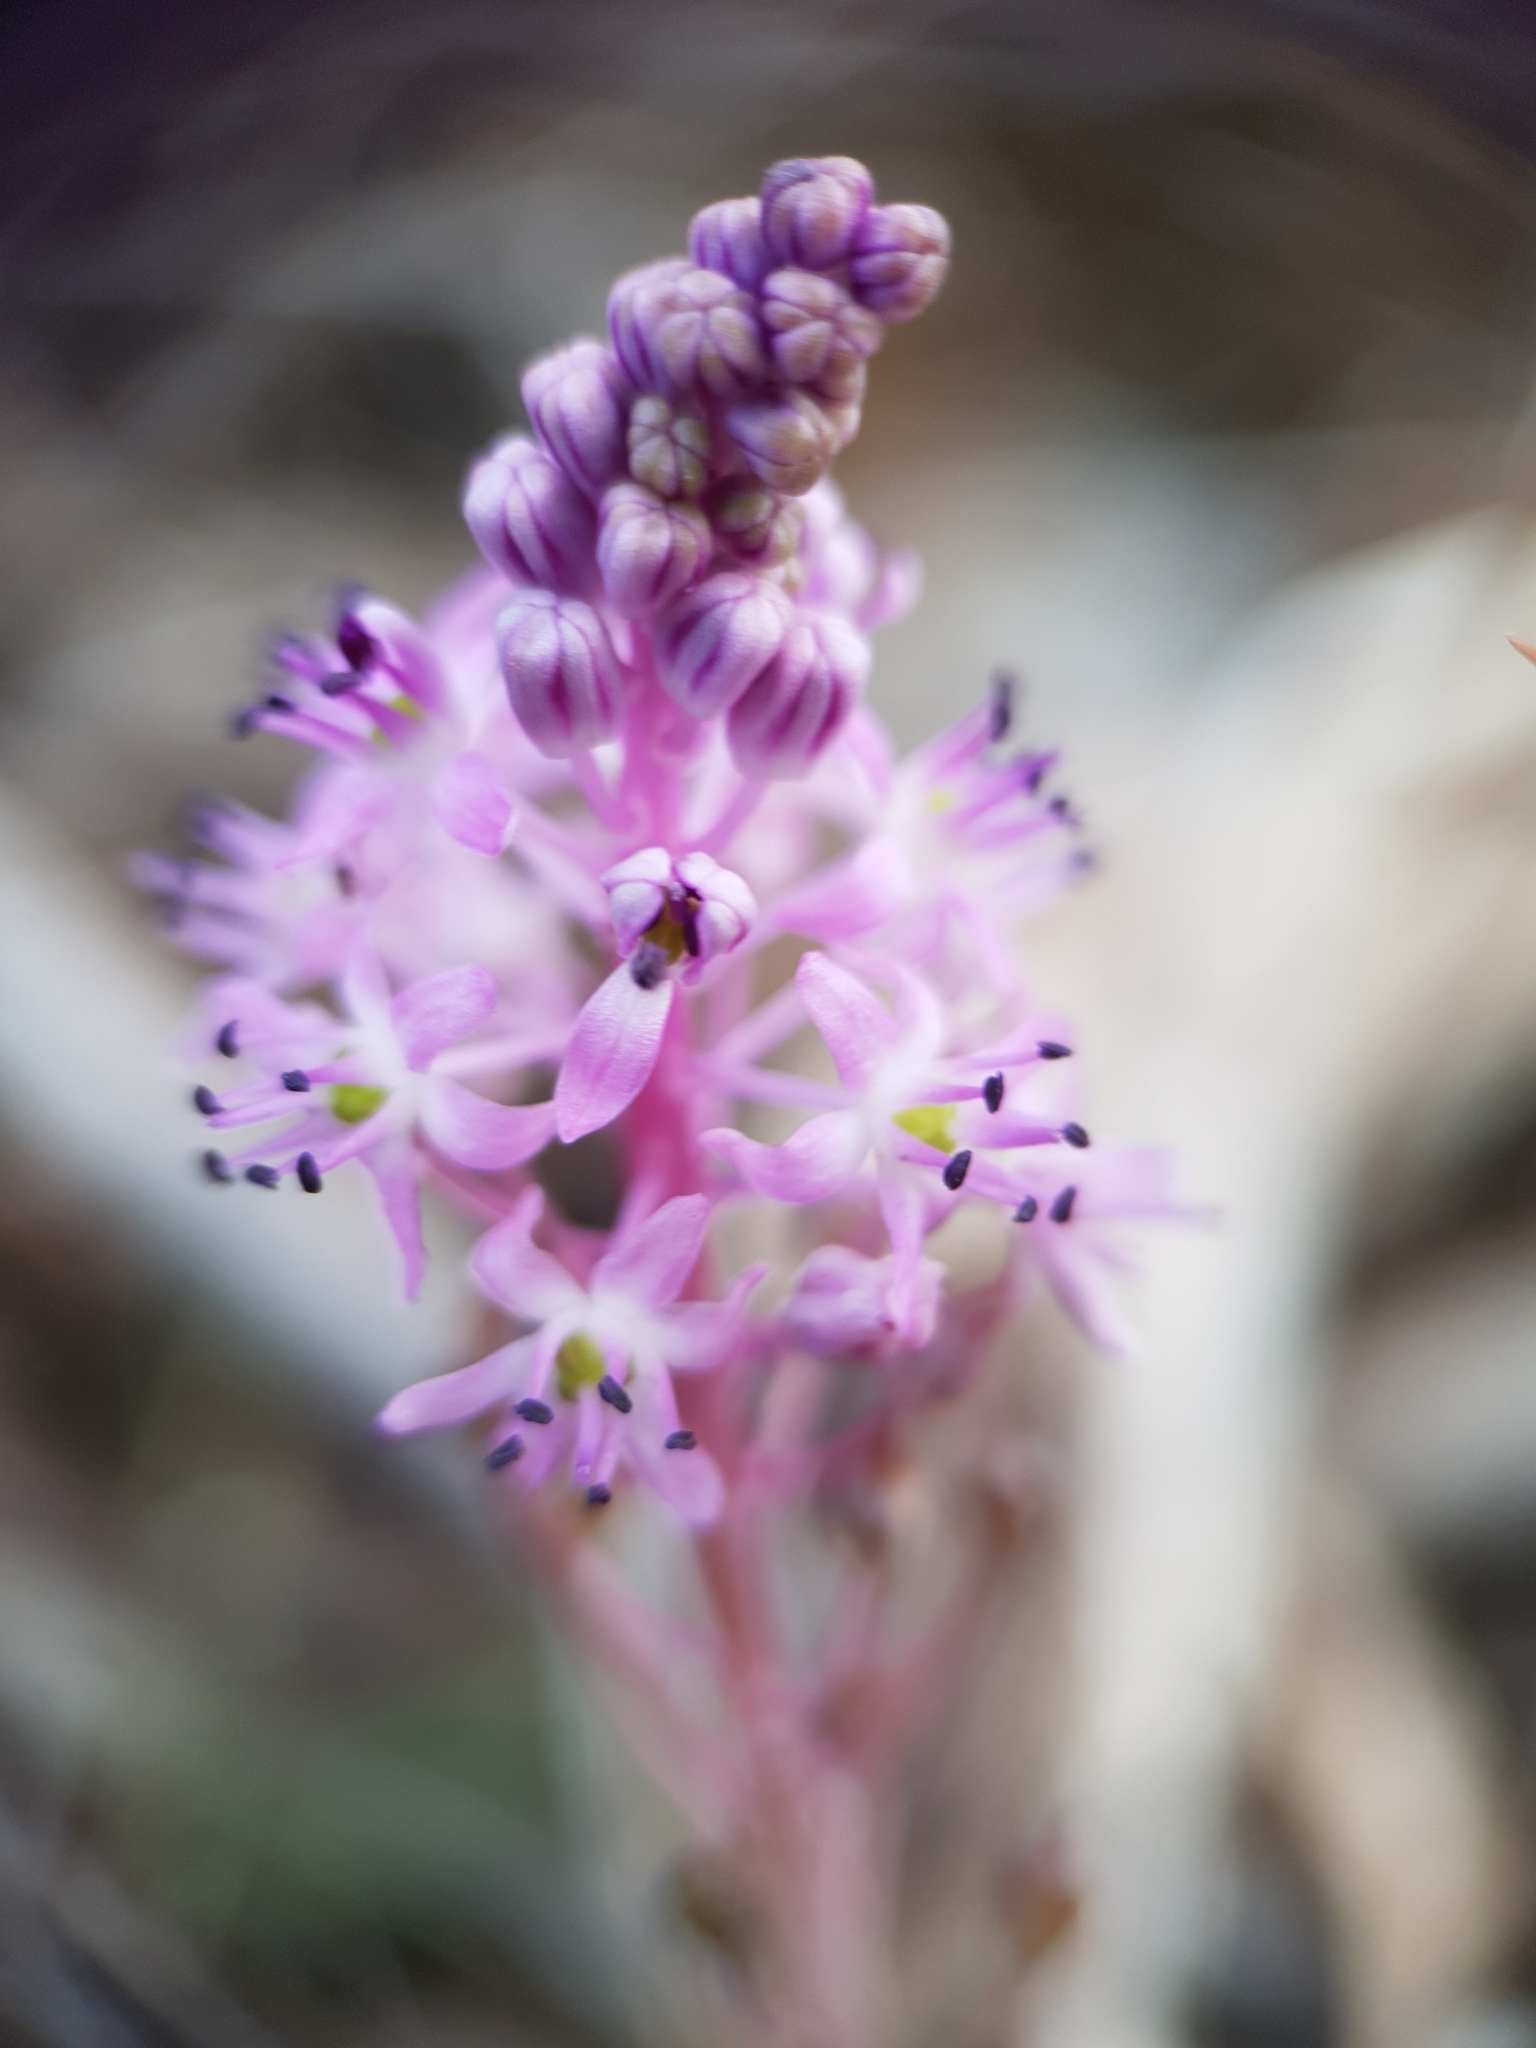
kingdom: Plantae
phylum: Tracheophyta
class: Liliopsida
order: Asparagales
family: Asparagaceae
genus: Barnardia
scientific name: Barnardia numidica
